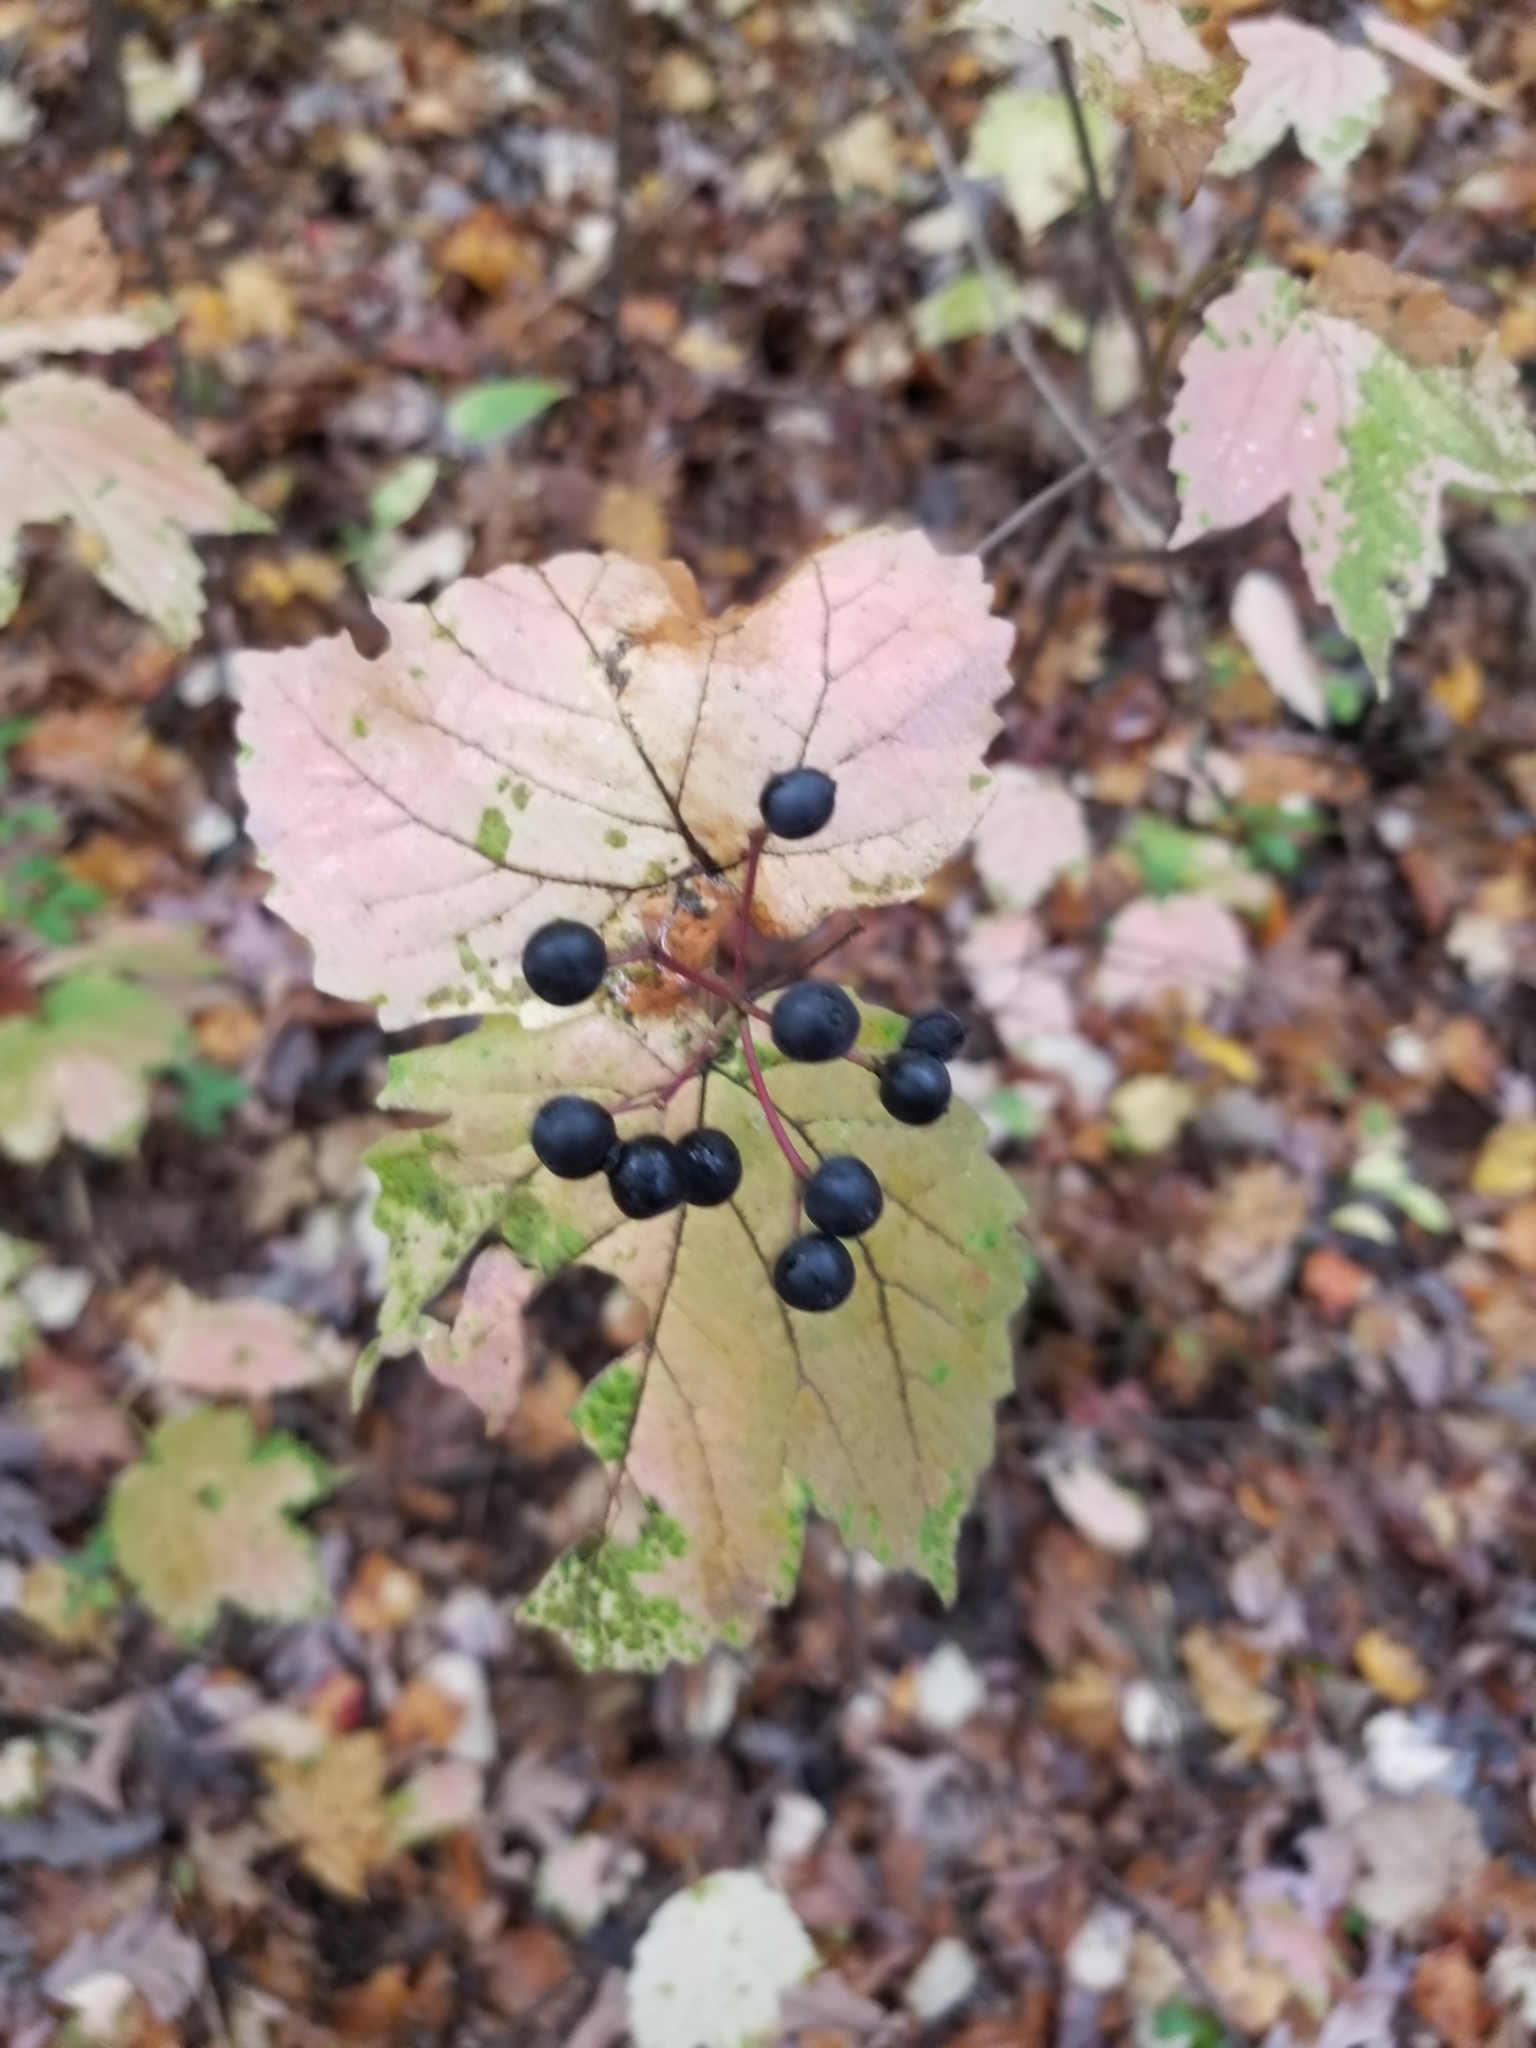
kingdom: Plantae
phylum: Tracheophyta
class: Magnoliopsida
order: Dipsacales
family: Viburnaceae
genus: Viburnum
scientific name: Viburnum acerifolium
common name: Dockmackie
